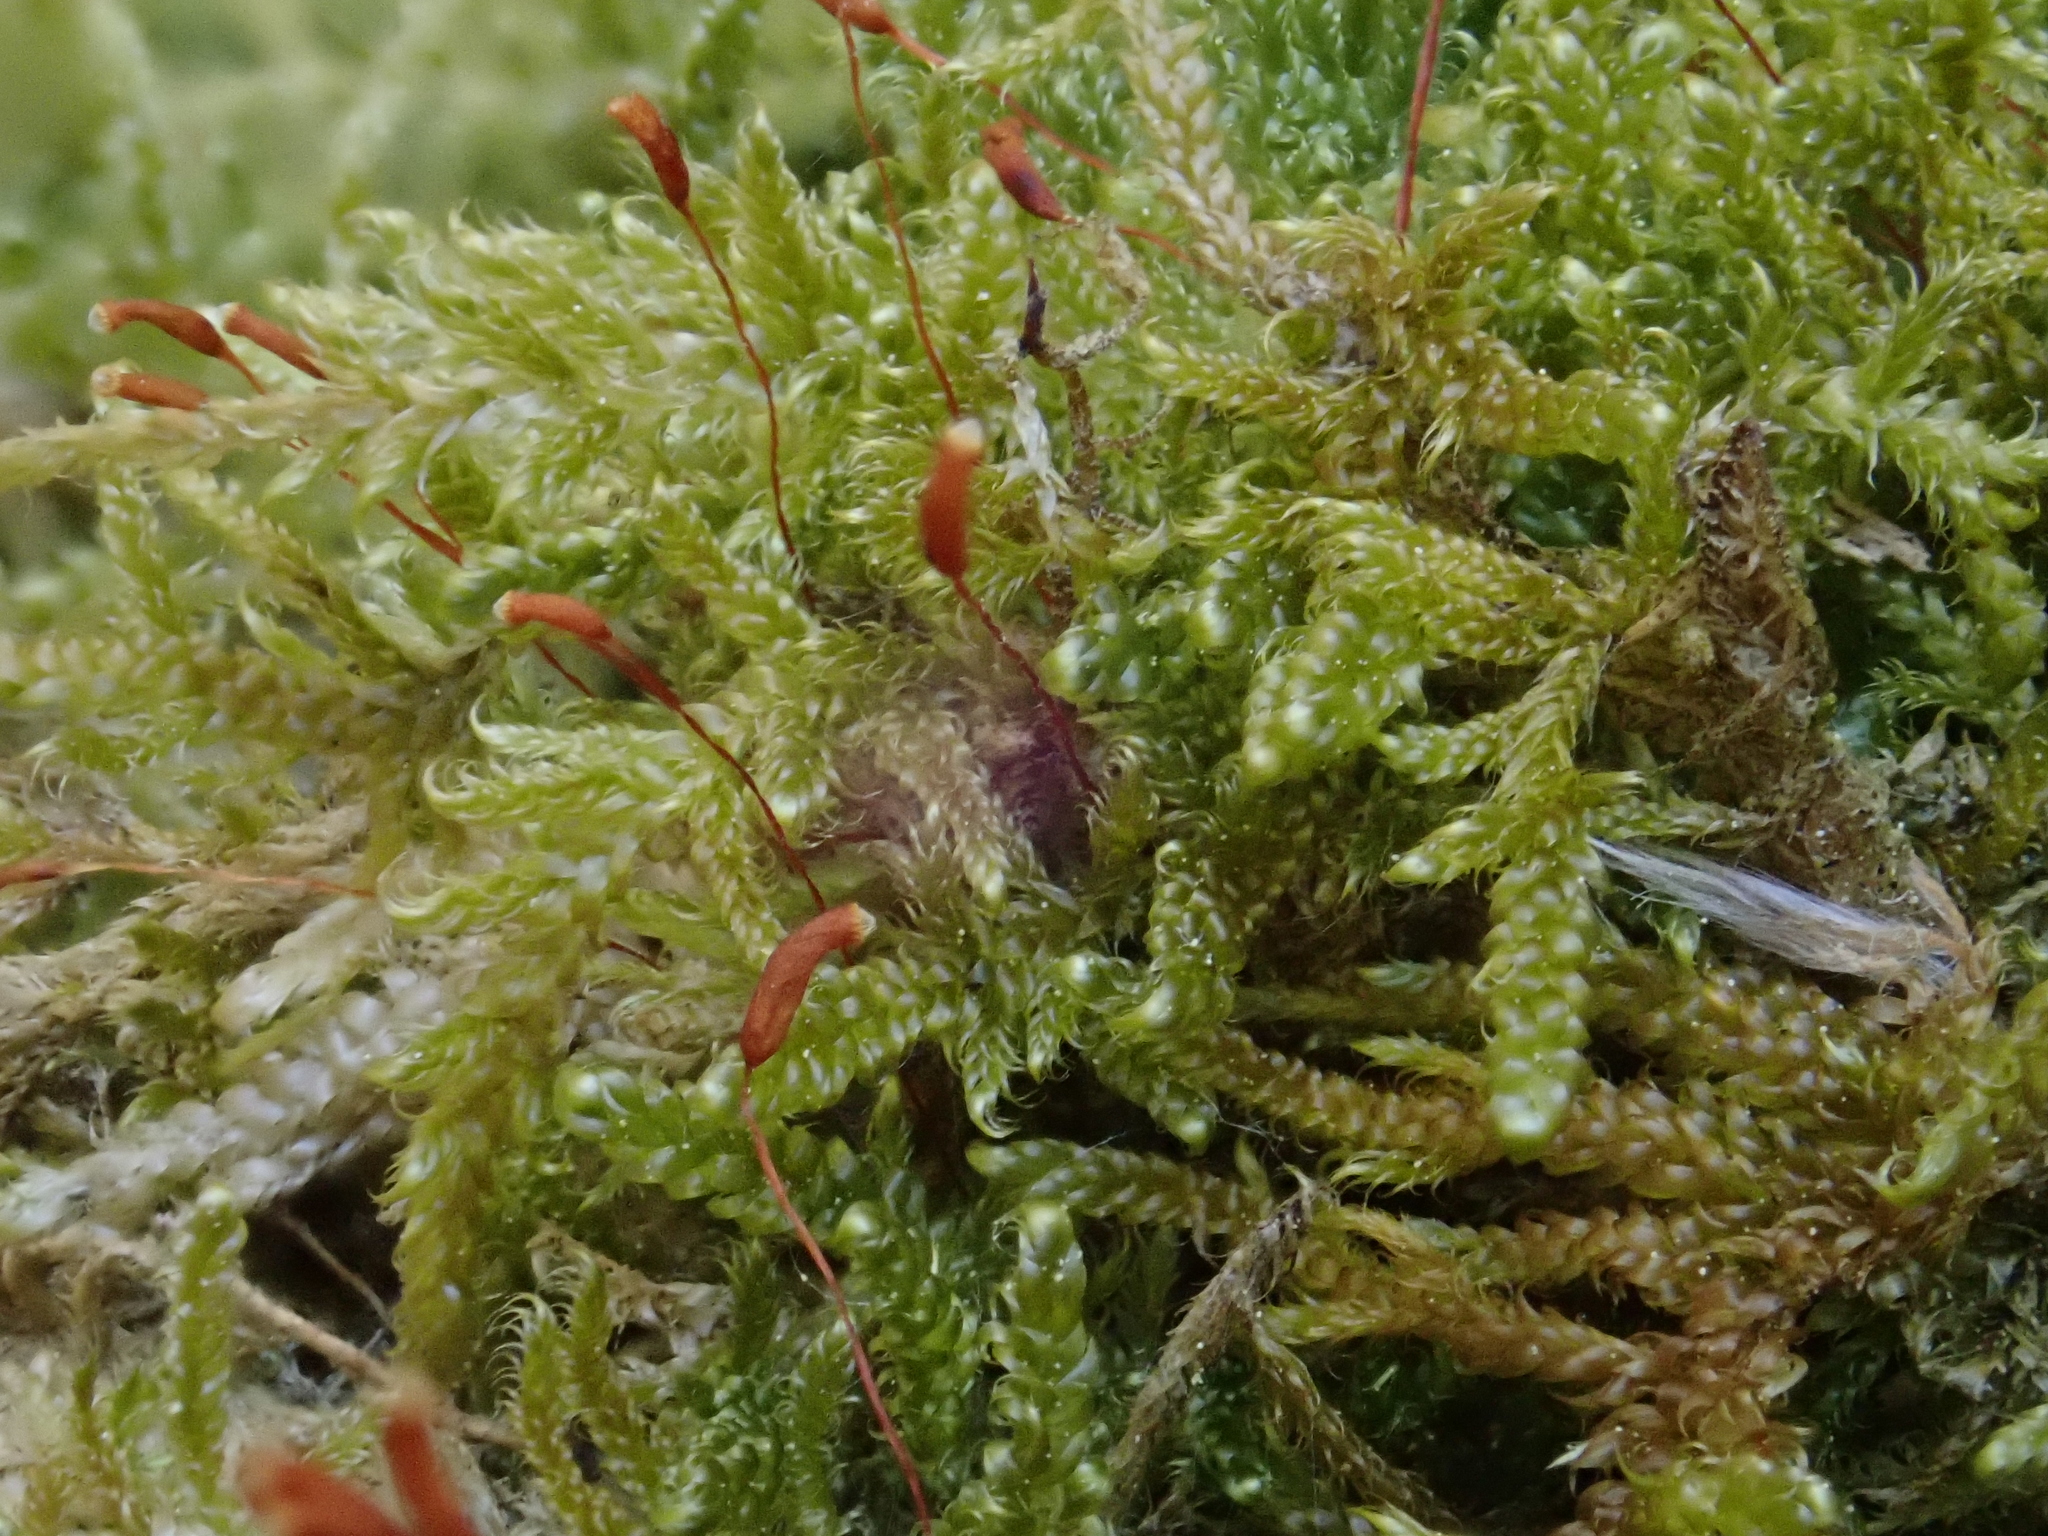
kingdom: Plantae
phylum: Bryophyta
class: Bryopsida
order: Hypnales
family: Hypnaceae
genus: Hypnum
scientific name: Hypnum cupressiforme
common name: Cypress-leaved plait-moss
